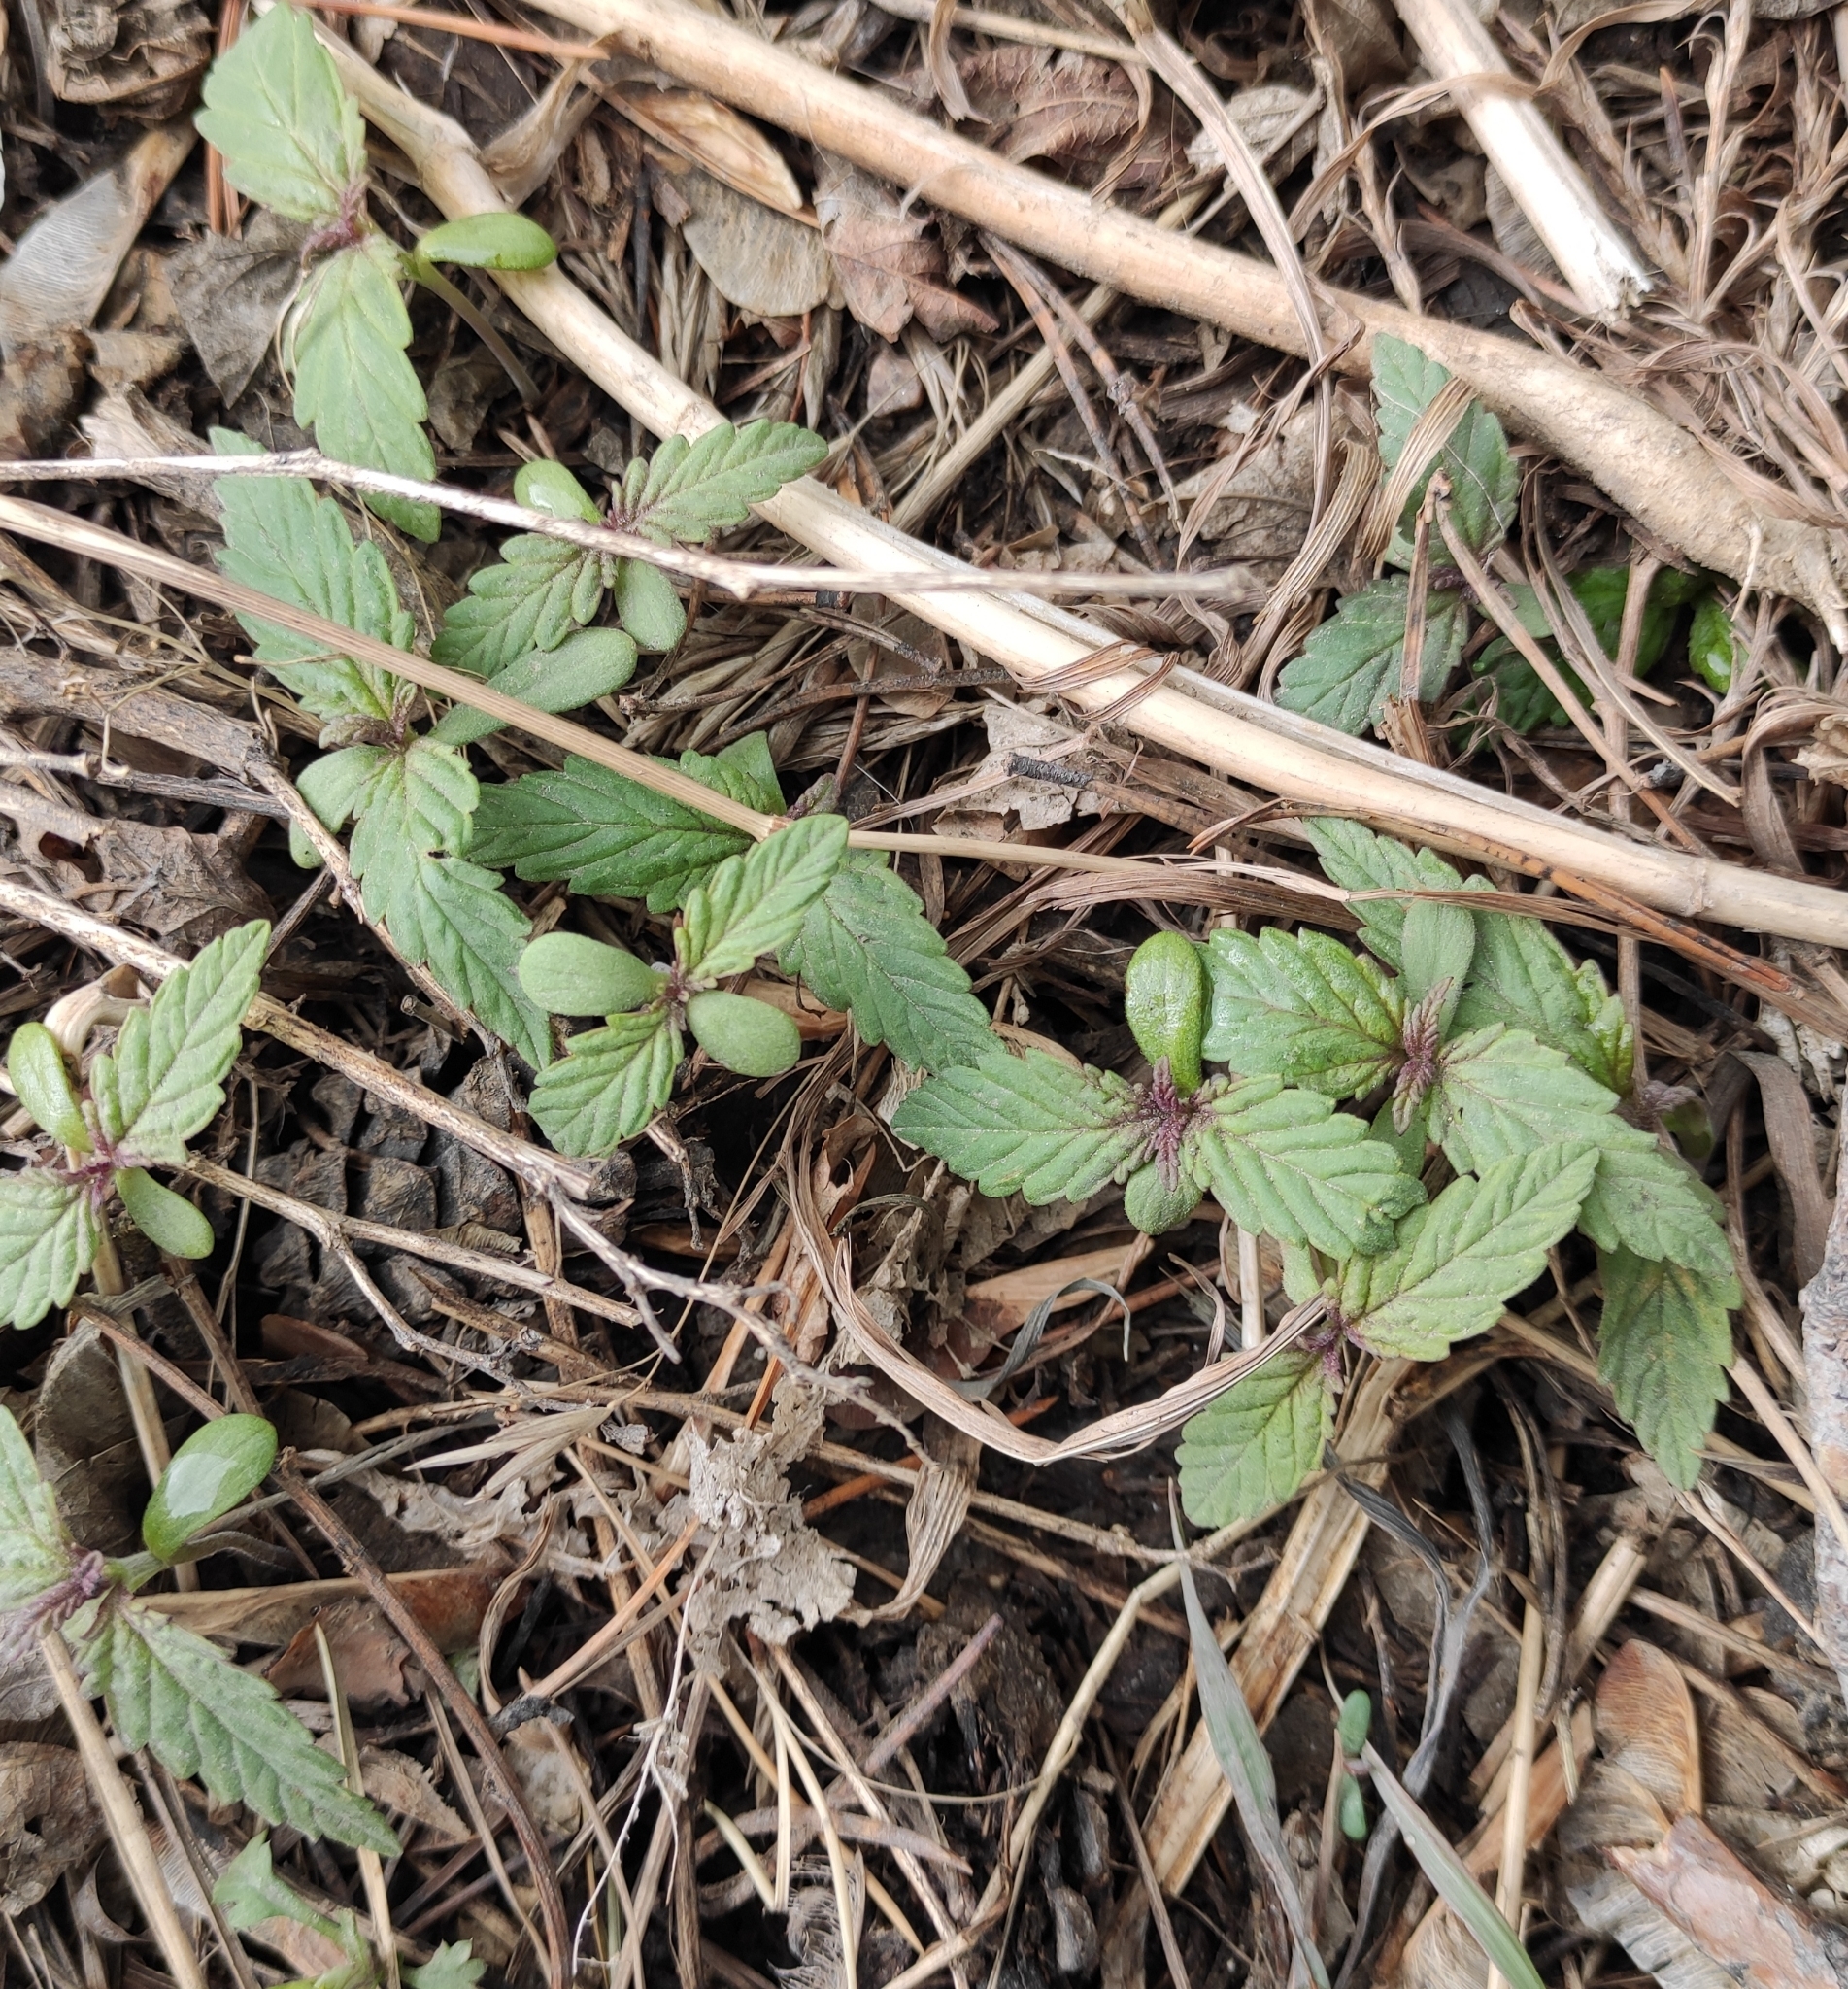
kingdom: Plantae
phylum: Tracheophyta
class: Magnoliopsida
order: Rosales
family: Cannabaceae
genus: Cannabis
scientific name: Cannabis sativa
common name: Hemp
